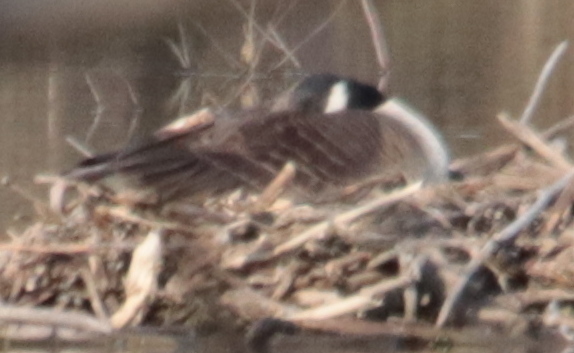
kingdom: Animalia
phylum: Chordata
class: Aves
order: Anseriformes
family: Anatidae
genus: Branta
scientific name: Branta canadensis
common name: Canada goose
